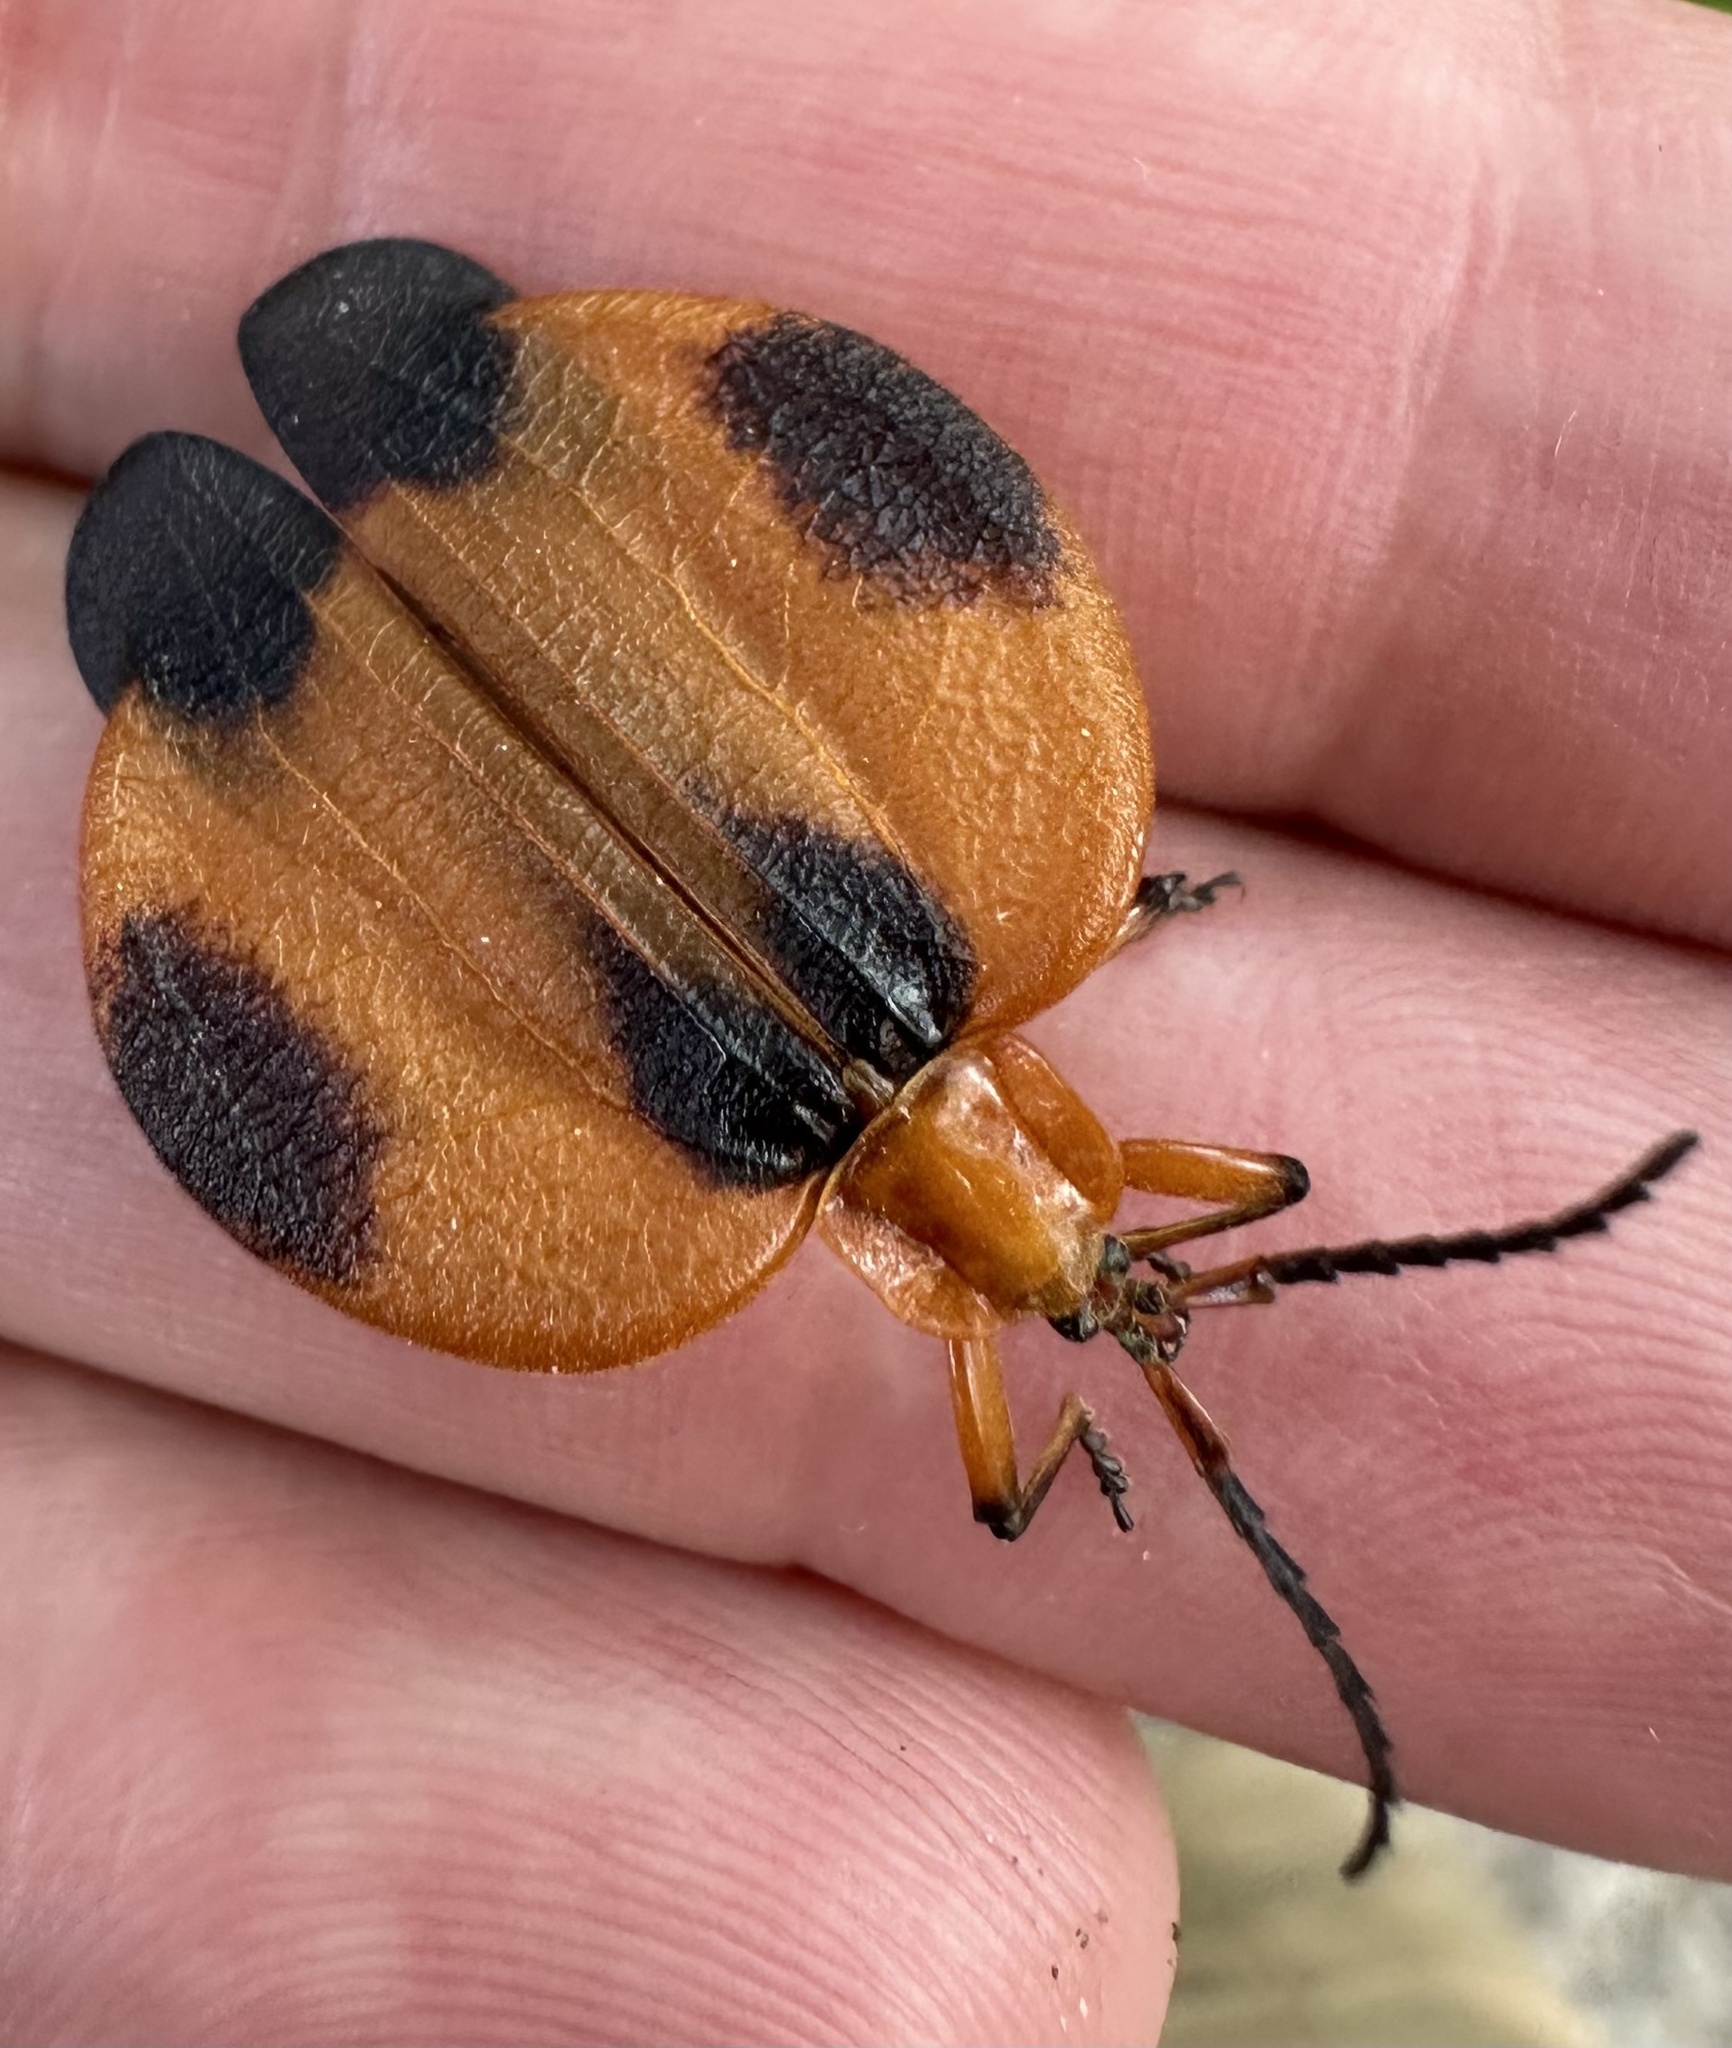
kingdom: Animalia
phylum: Arthropoda
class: Insecta
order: Coleoptera
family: Lycidae
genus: Lycus
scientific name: Lycus
